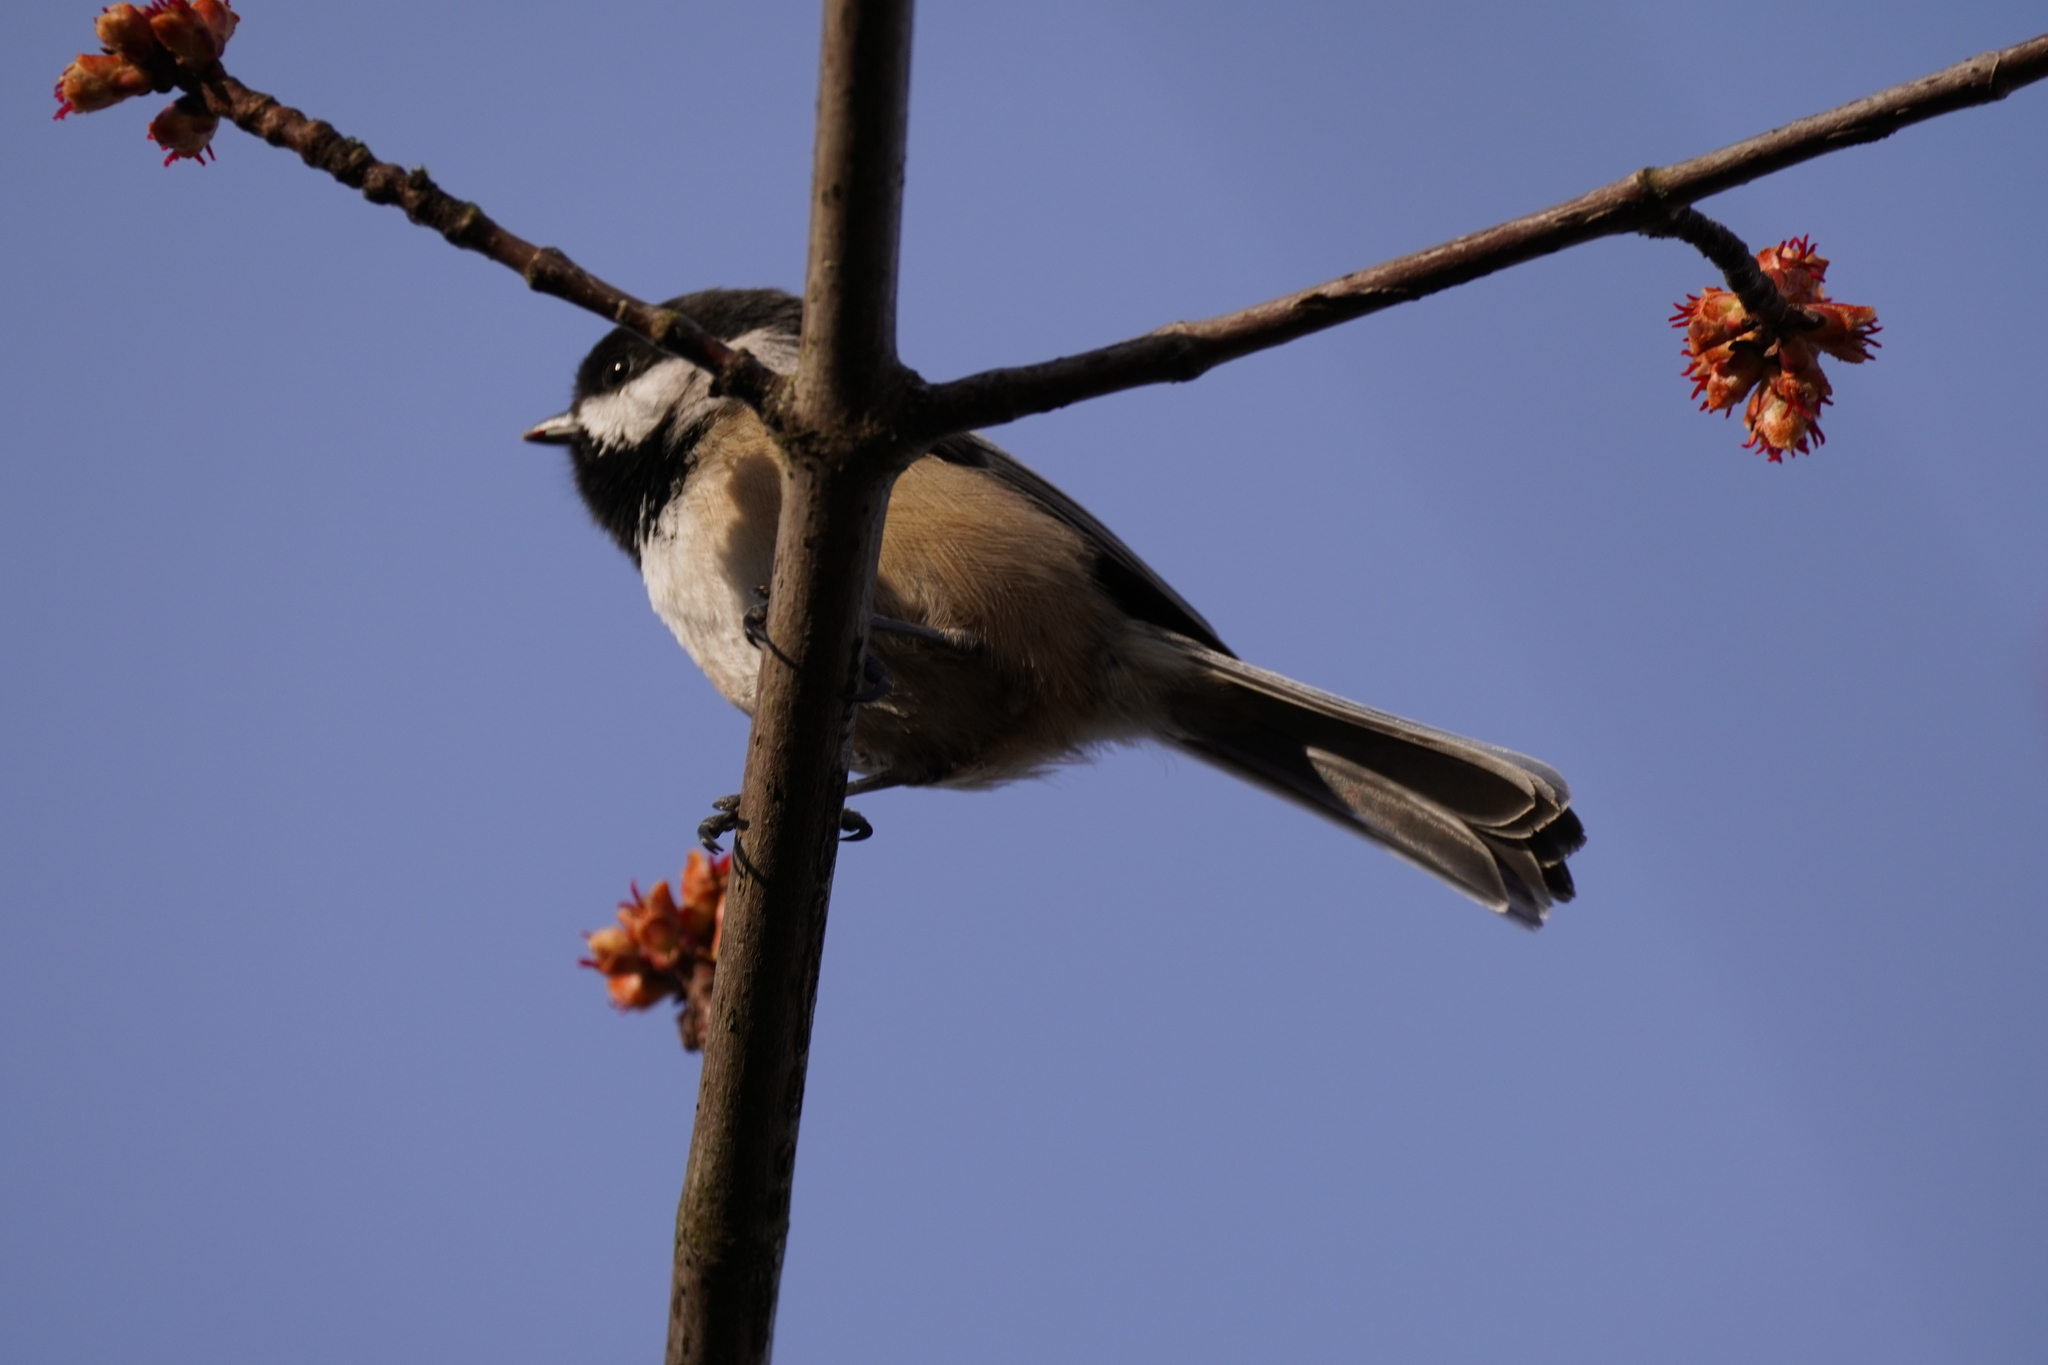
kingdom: Animalia
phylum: Chordata
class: Aves
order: Passeriformes
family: Paridae
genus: Poecile
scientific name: Poecile atricapillus
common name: Black-capped chickadee
